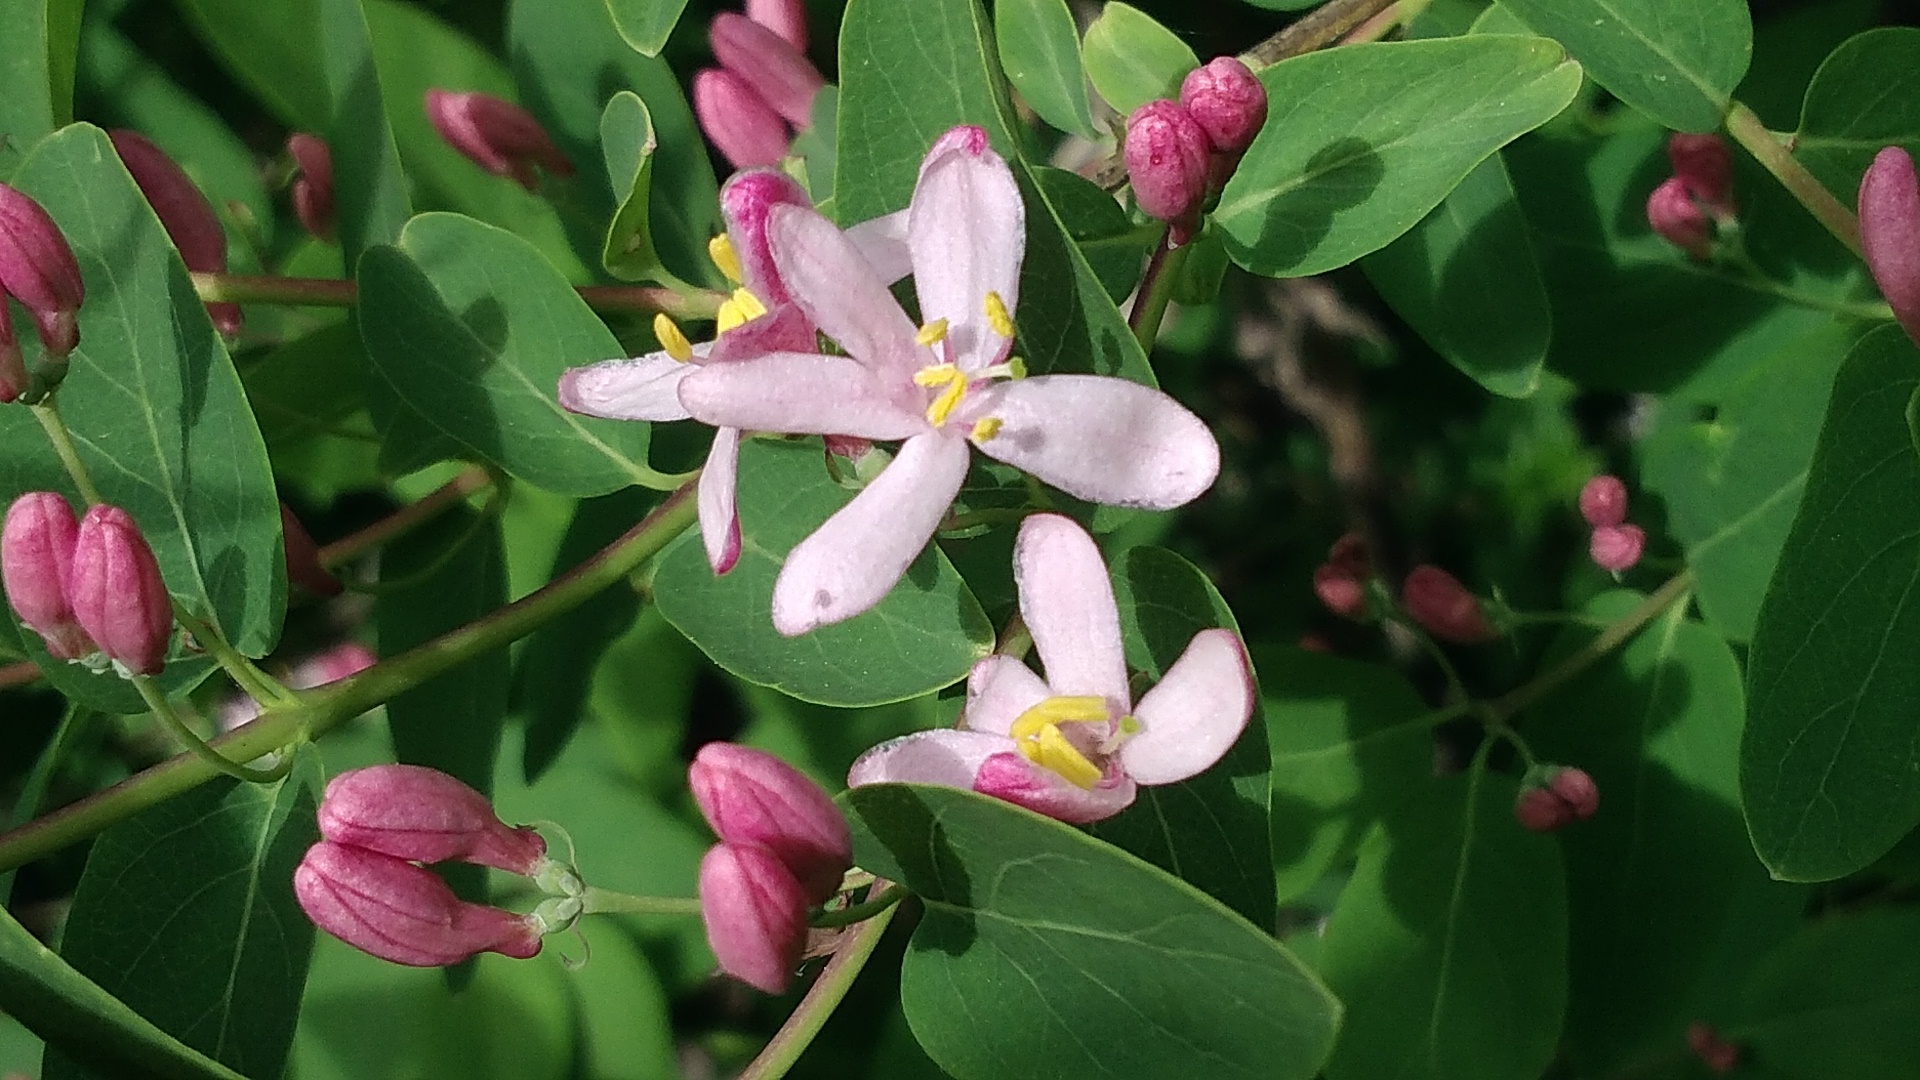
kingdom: Plantae
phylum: Tracheophyta
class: Magnoliopsida
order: Dipsacales
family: Caprifoliaceae
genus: Lonicera
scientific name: Lonicera tatarica
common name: Tatarian honeysuckle
